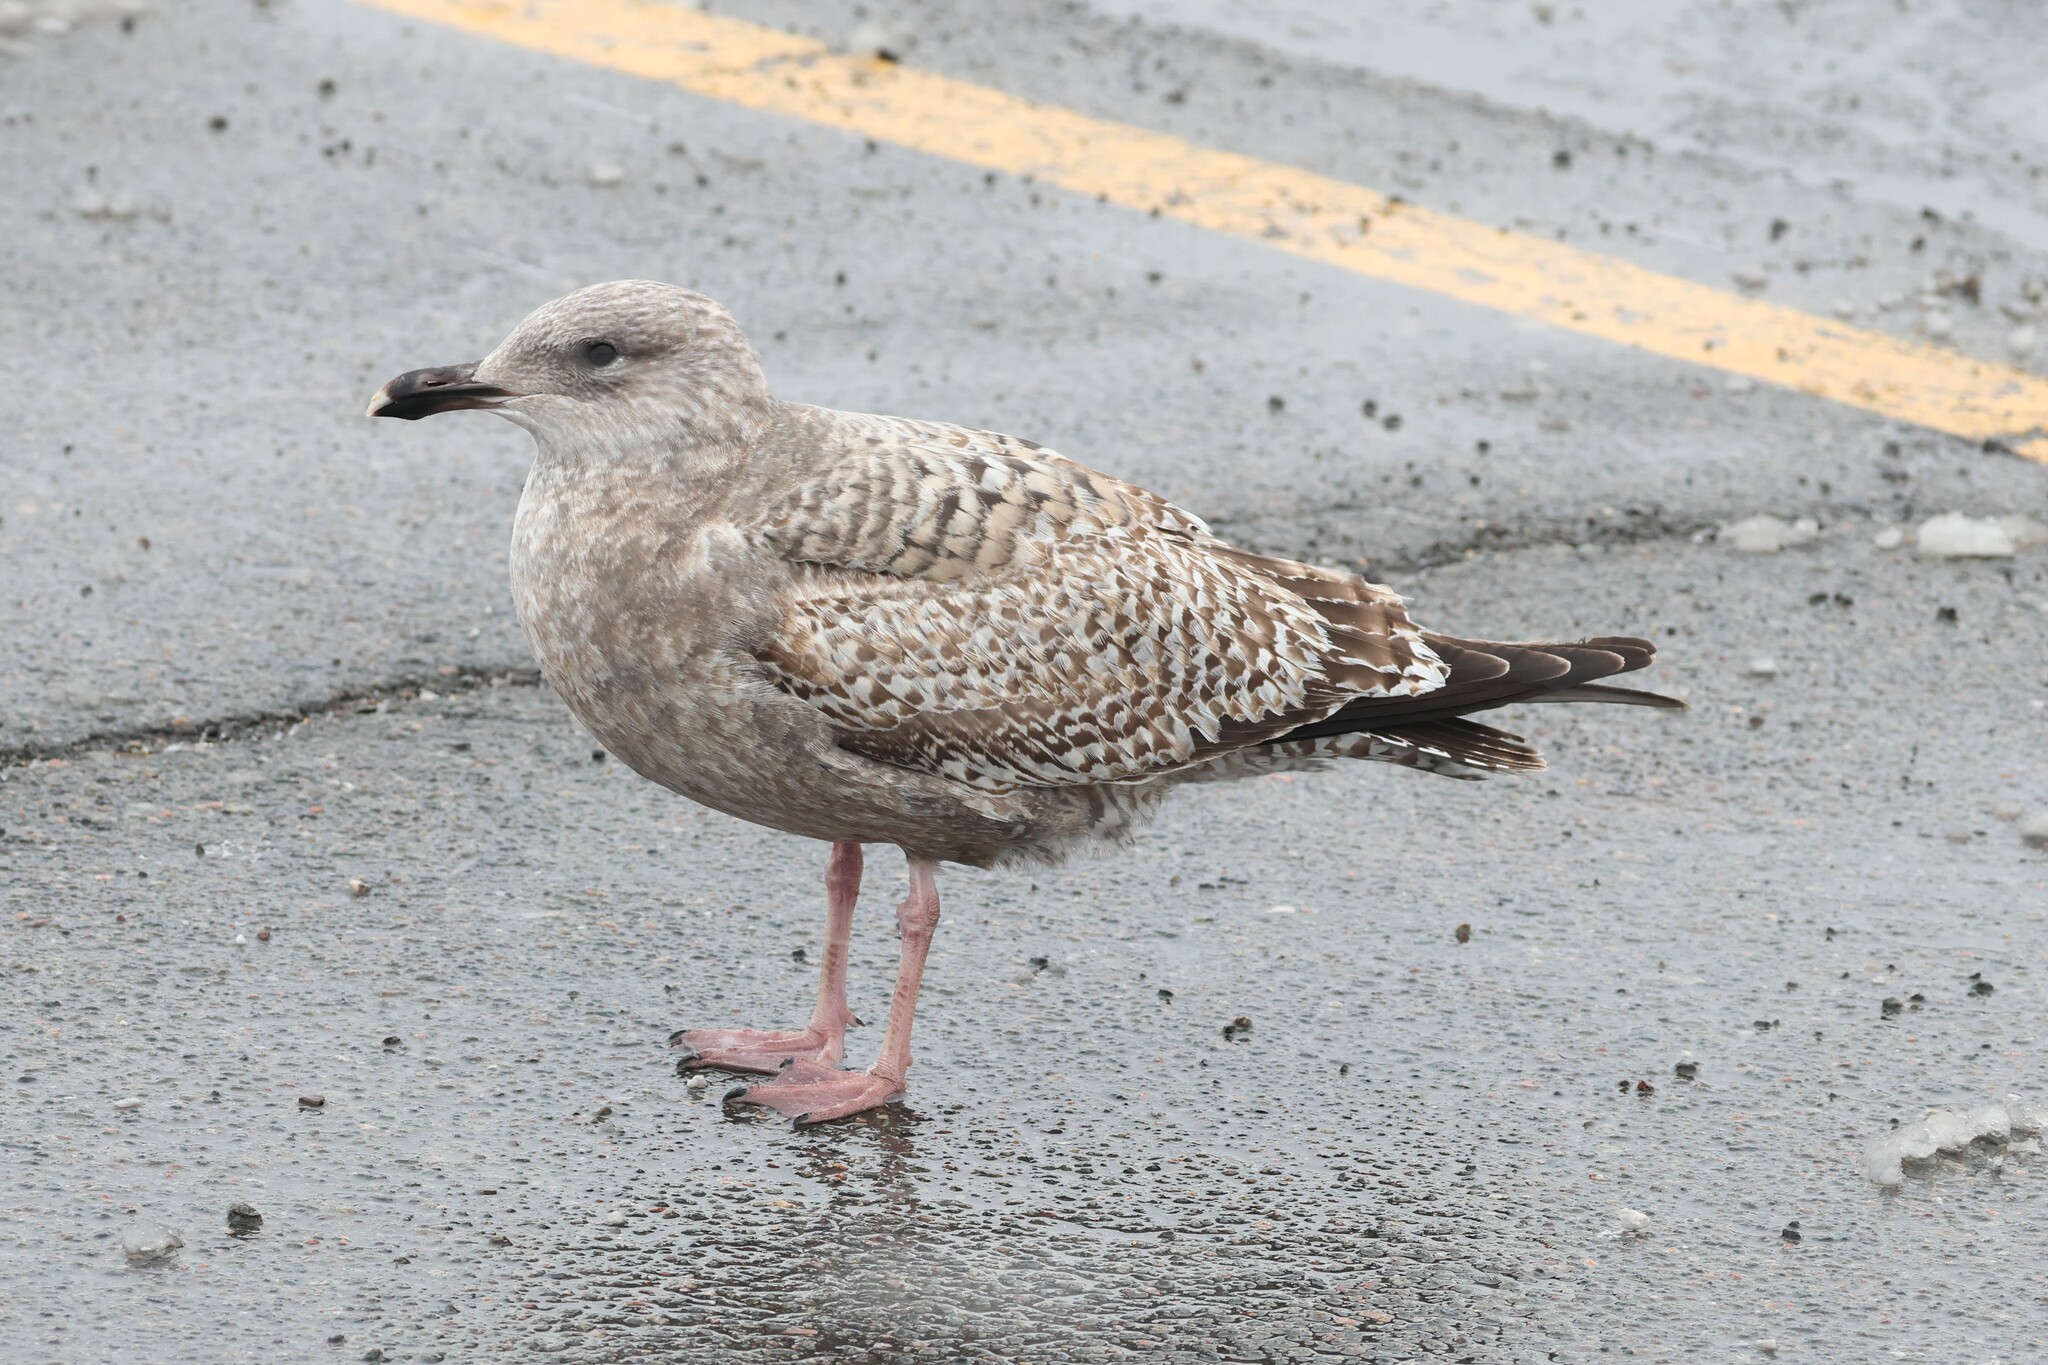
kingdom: Animalia
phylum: Chordata
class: Aves
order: Charadriiformes
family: Laridae
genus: Larus
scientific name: Larus argentatus
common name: Herring gull
